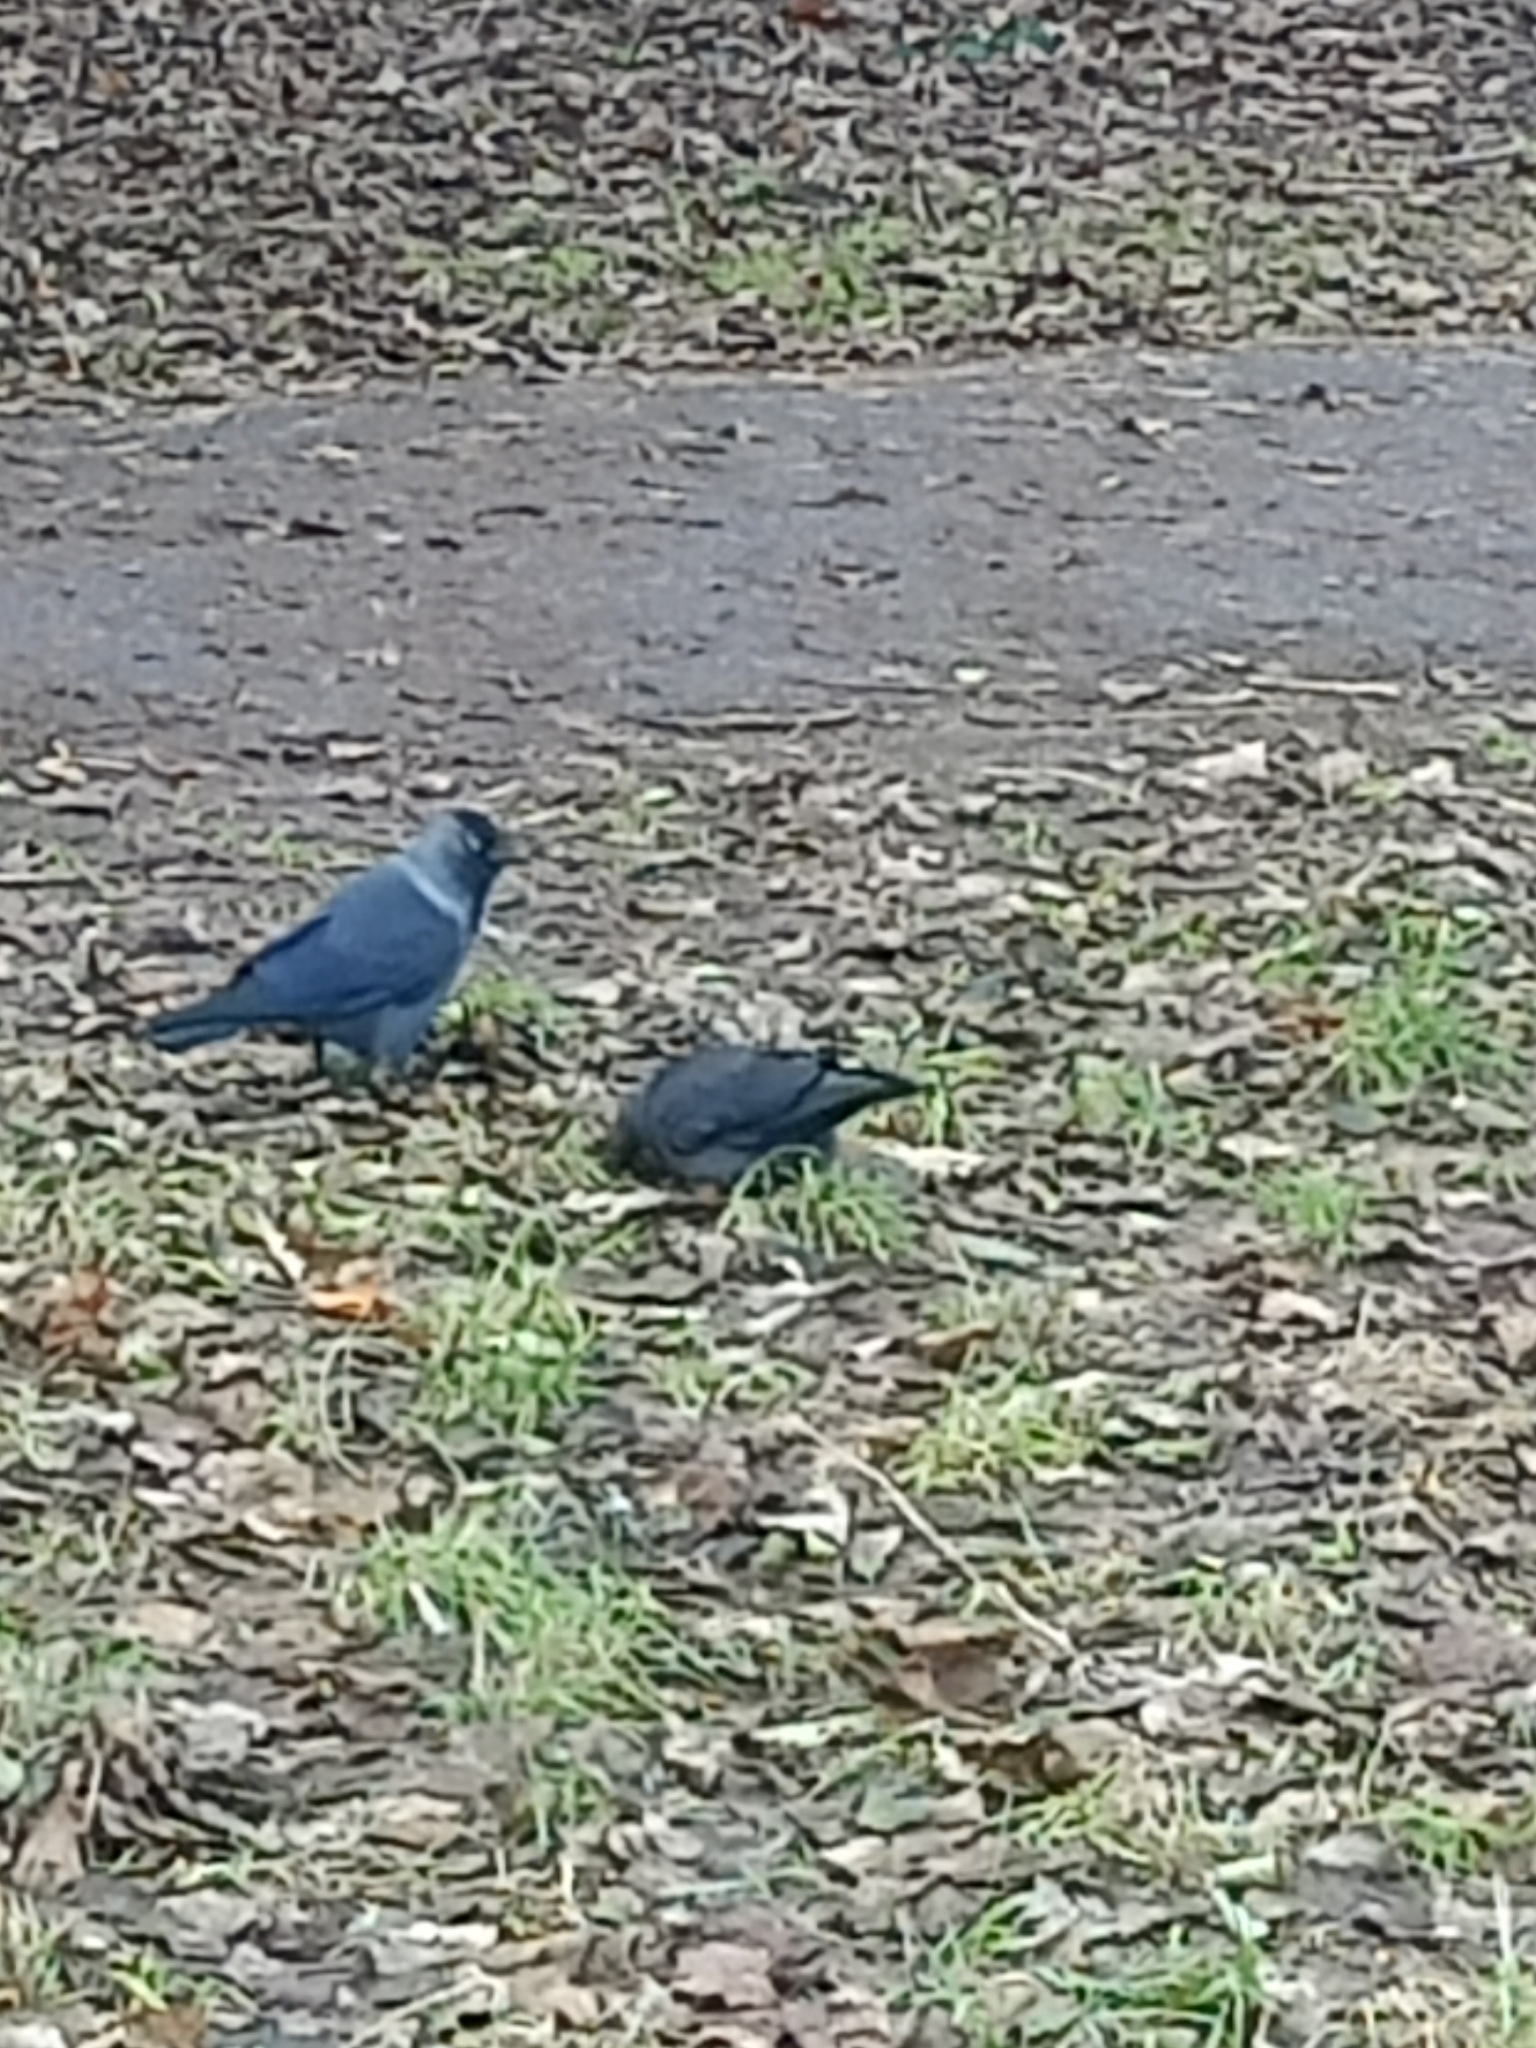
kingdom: Animalia
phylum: Chordata
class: Aves
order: Passeriformes
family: Corvidae
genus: Coloeus
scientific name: Coloeus monedula
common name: Western jackdaw
